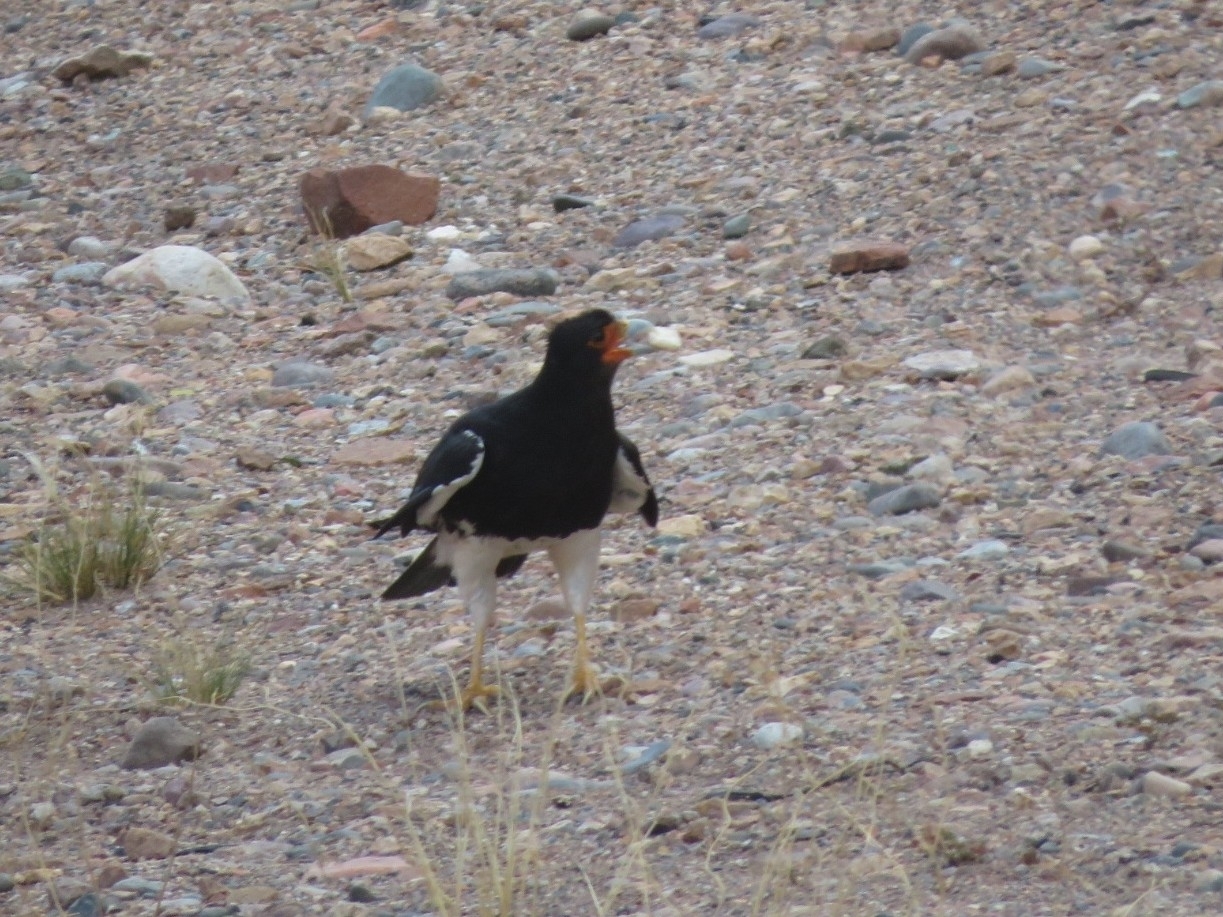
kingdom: Animalia
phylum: Chordata
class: Aves
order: Falconiformes
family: Falconidae
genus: Daptrius
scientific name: Daptrius
